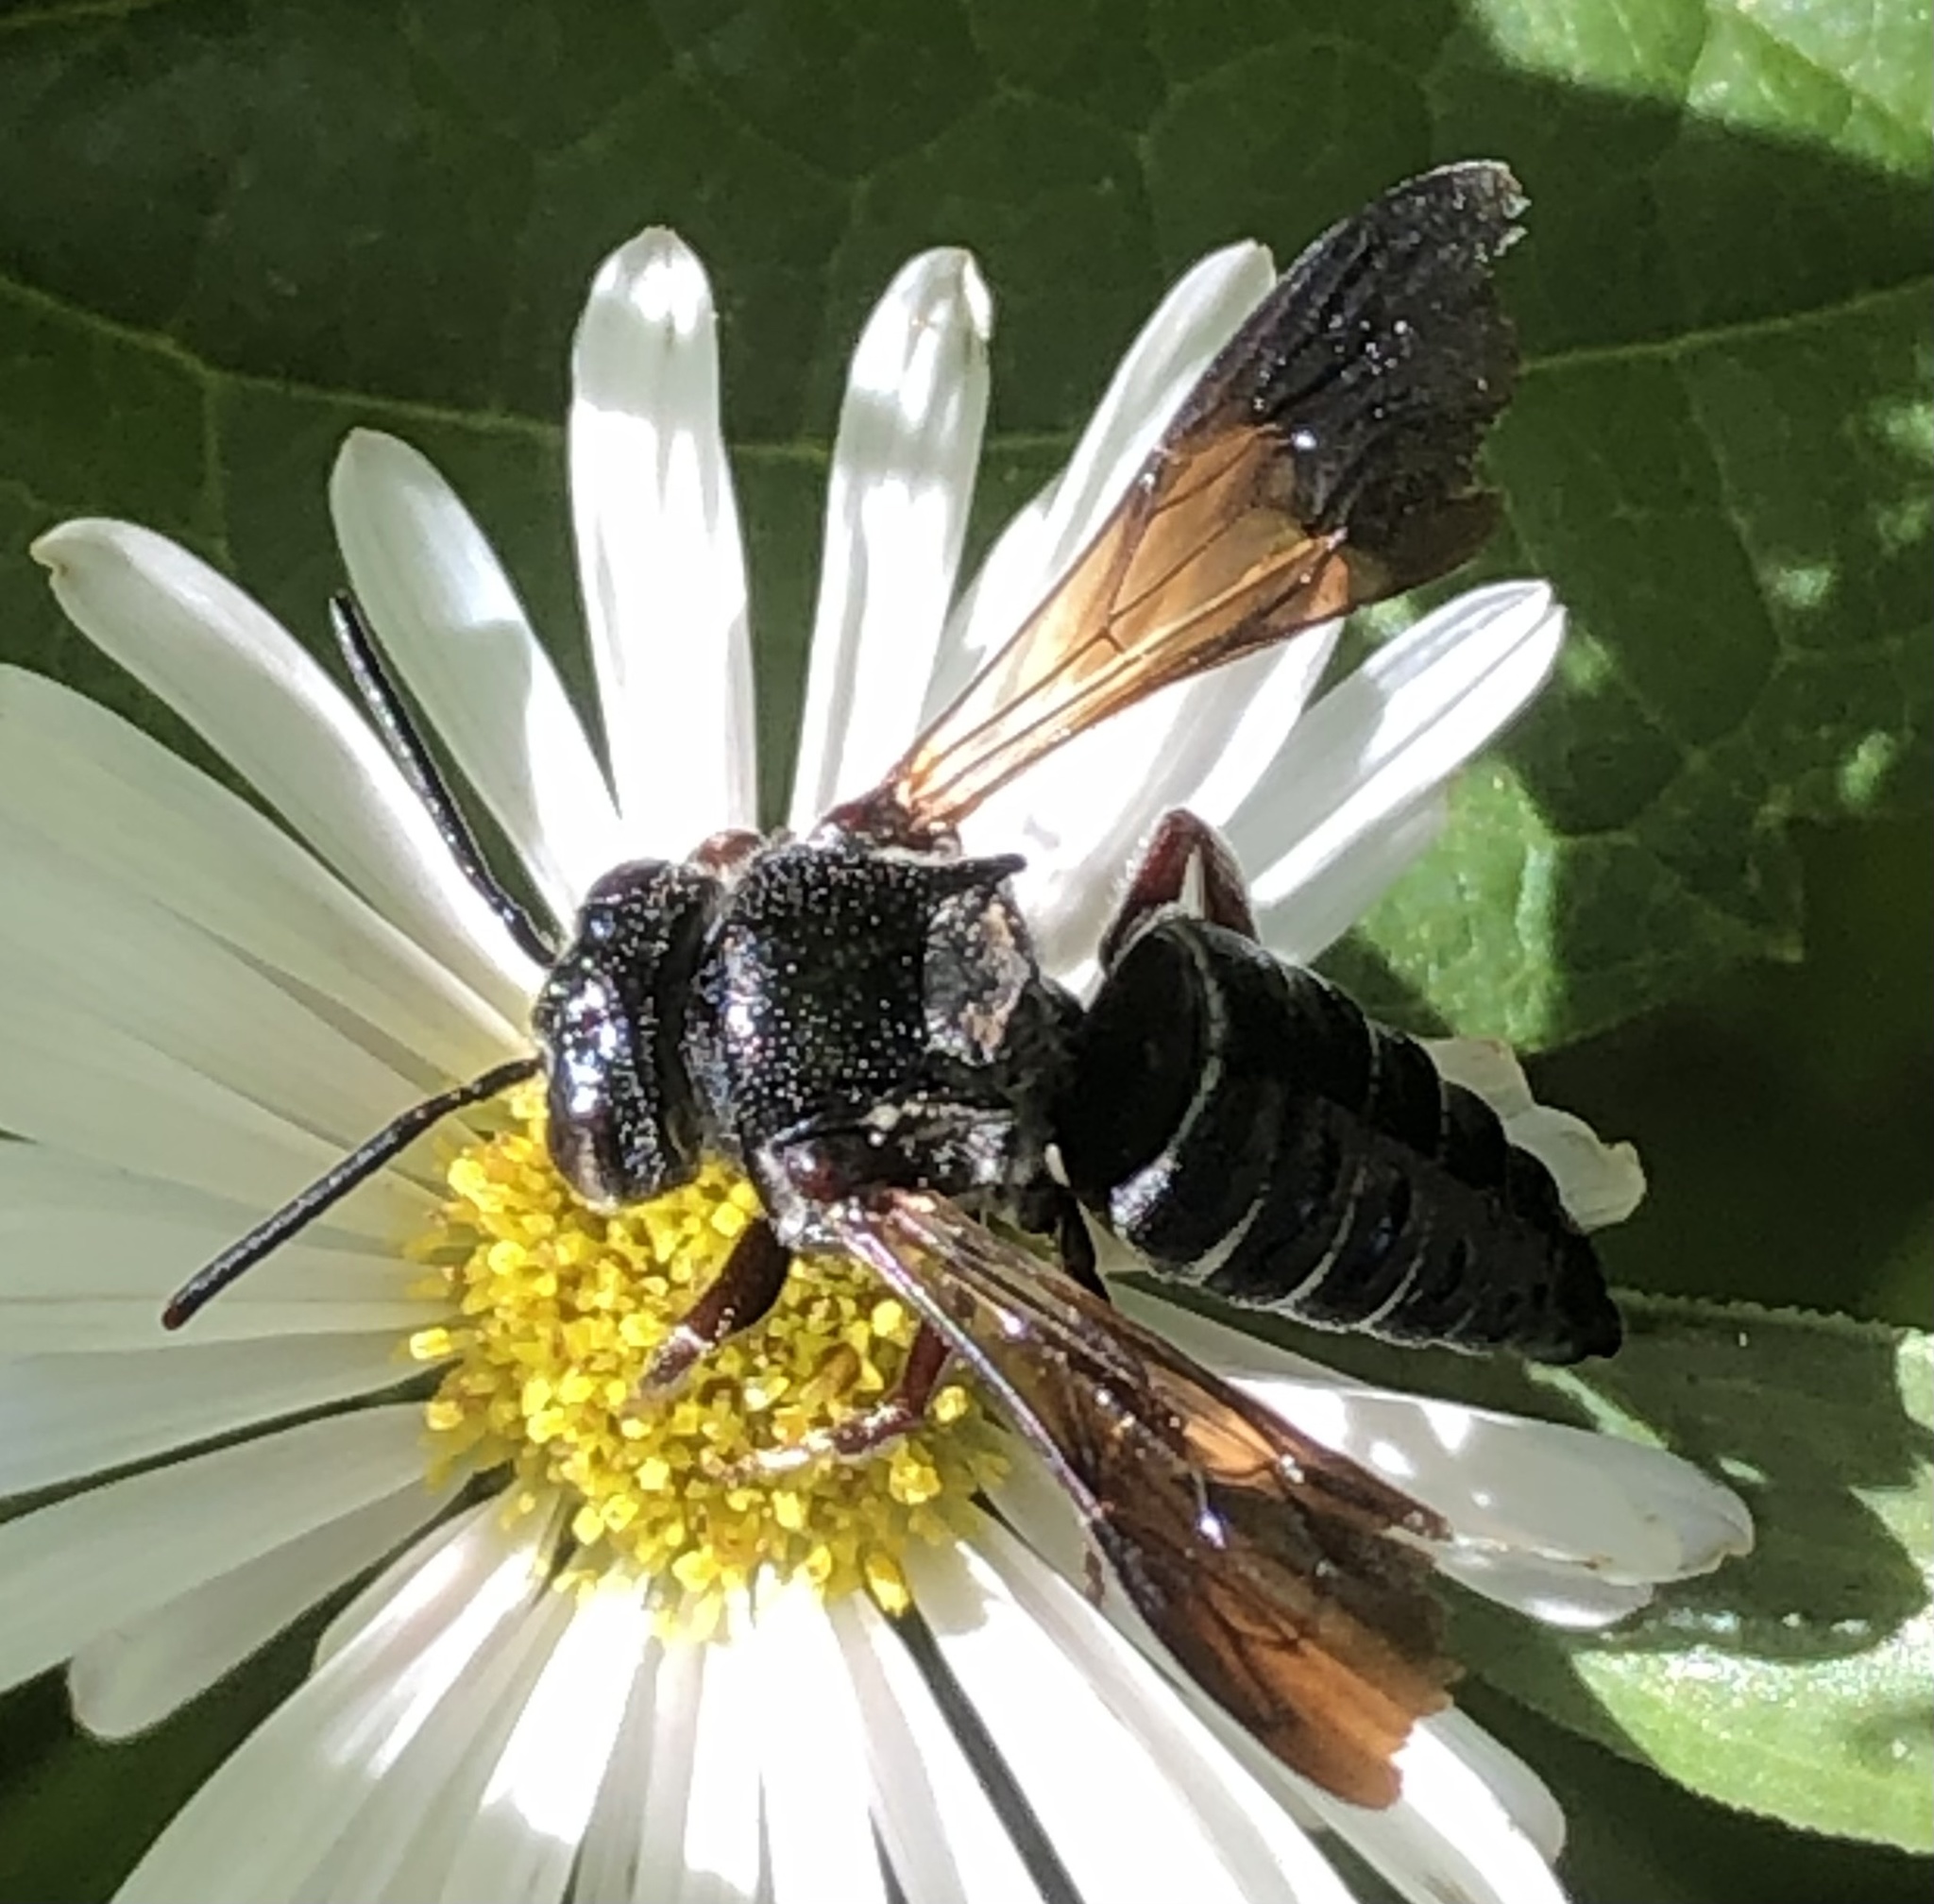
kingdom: Animalia
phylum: Arthropoda
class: Insecta
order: Hymenoptera
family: Megachilidae
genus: Coelioxys
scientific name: Coelioxys dolichos
